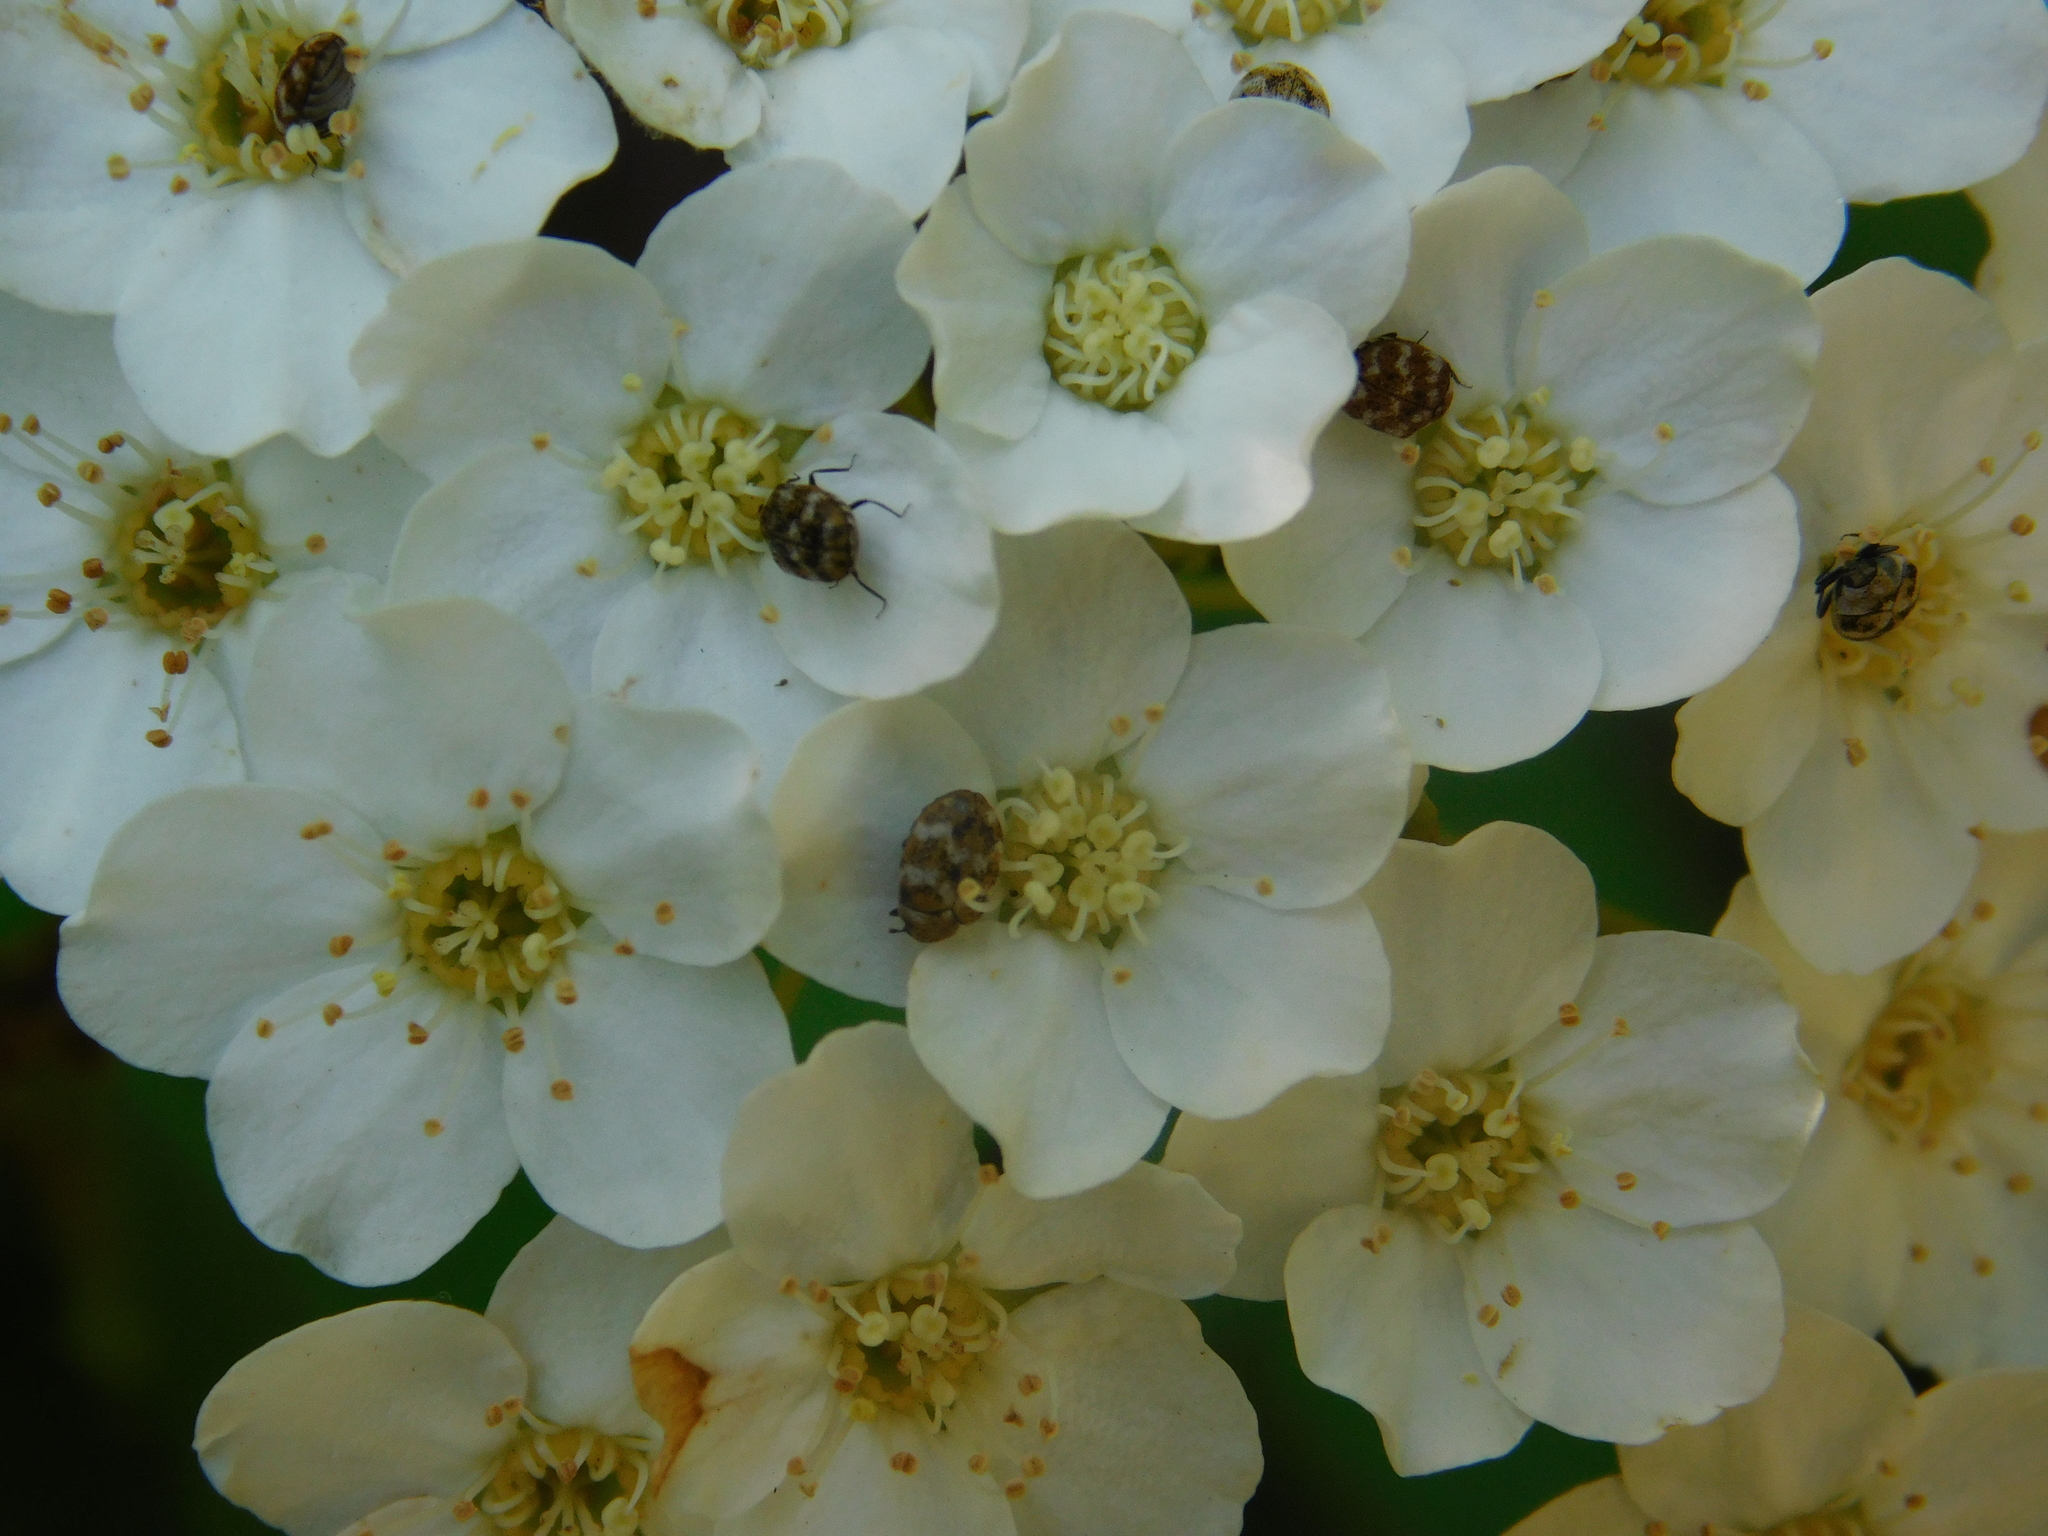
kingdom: Animalia
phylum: Arthropoda
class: Insecta
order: Coleoptera
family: Dermestidae
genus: Anthrenus
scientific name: Anthrenus verbasci
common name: Varied carpet beetle
